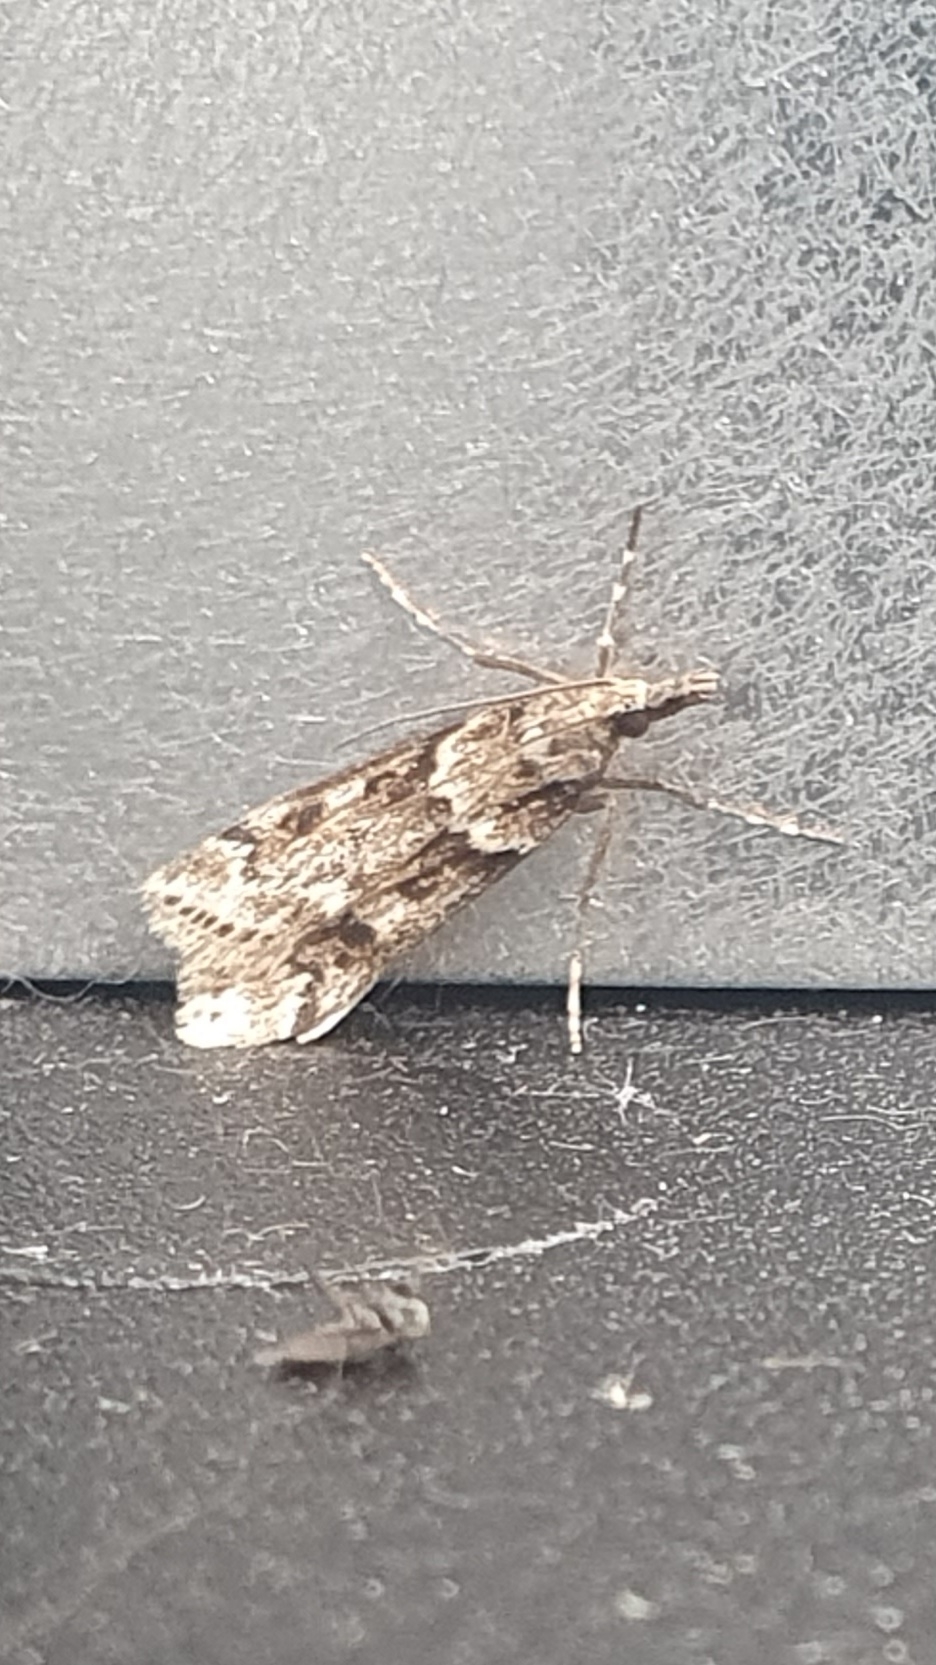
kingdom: Animalia
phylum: Arthropoda
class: Insecta
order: Lepidoptera
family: Crambidae
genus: Eudonia
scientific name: Eudonia angustea
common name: Narrow-winged grey
